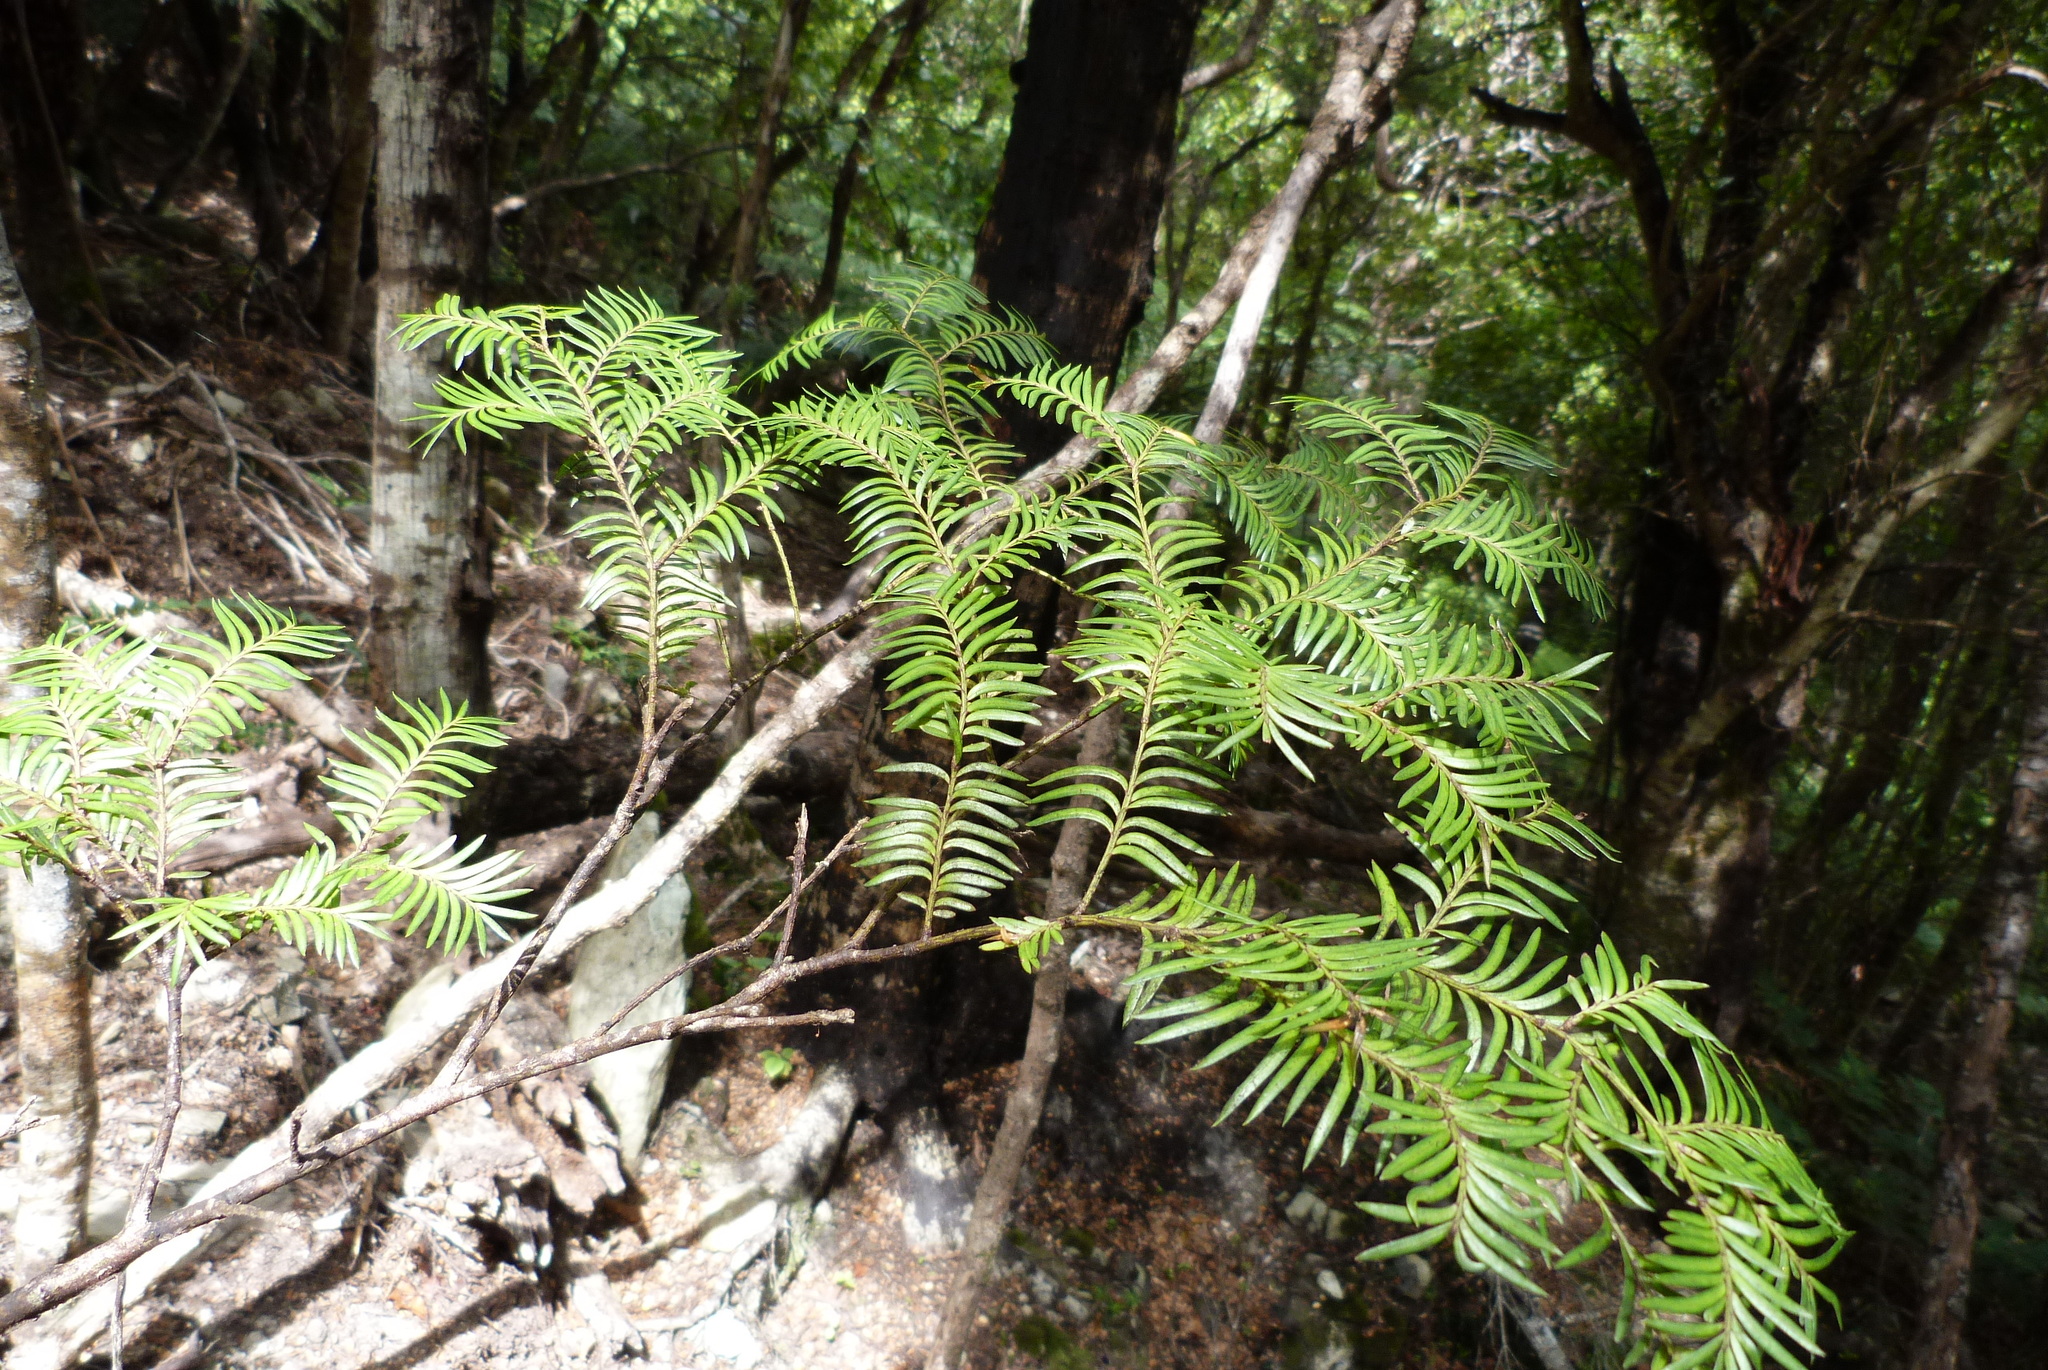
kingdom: Plantae
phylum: Tracheophyta
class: Pinopsida
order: Pinales
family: Podocarpaceae
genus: Prumnopitys
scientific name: Prumnopitys ferruginea
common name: Brown pine
